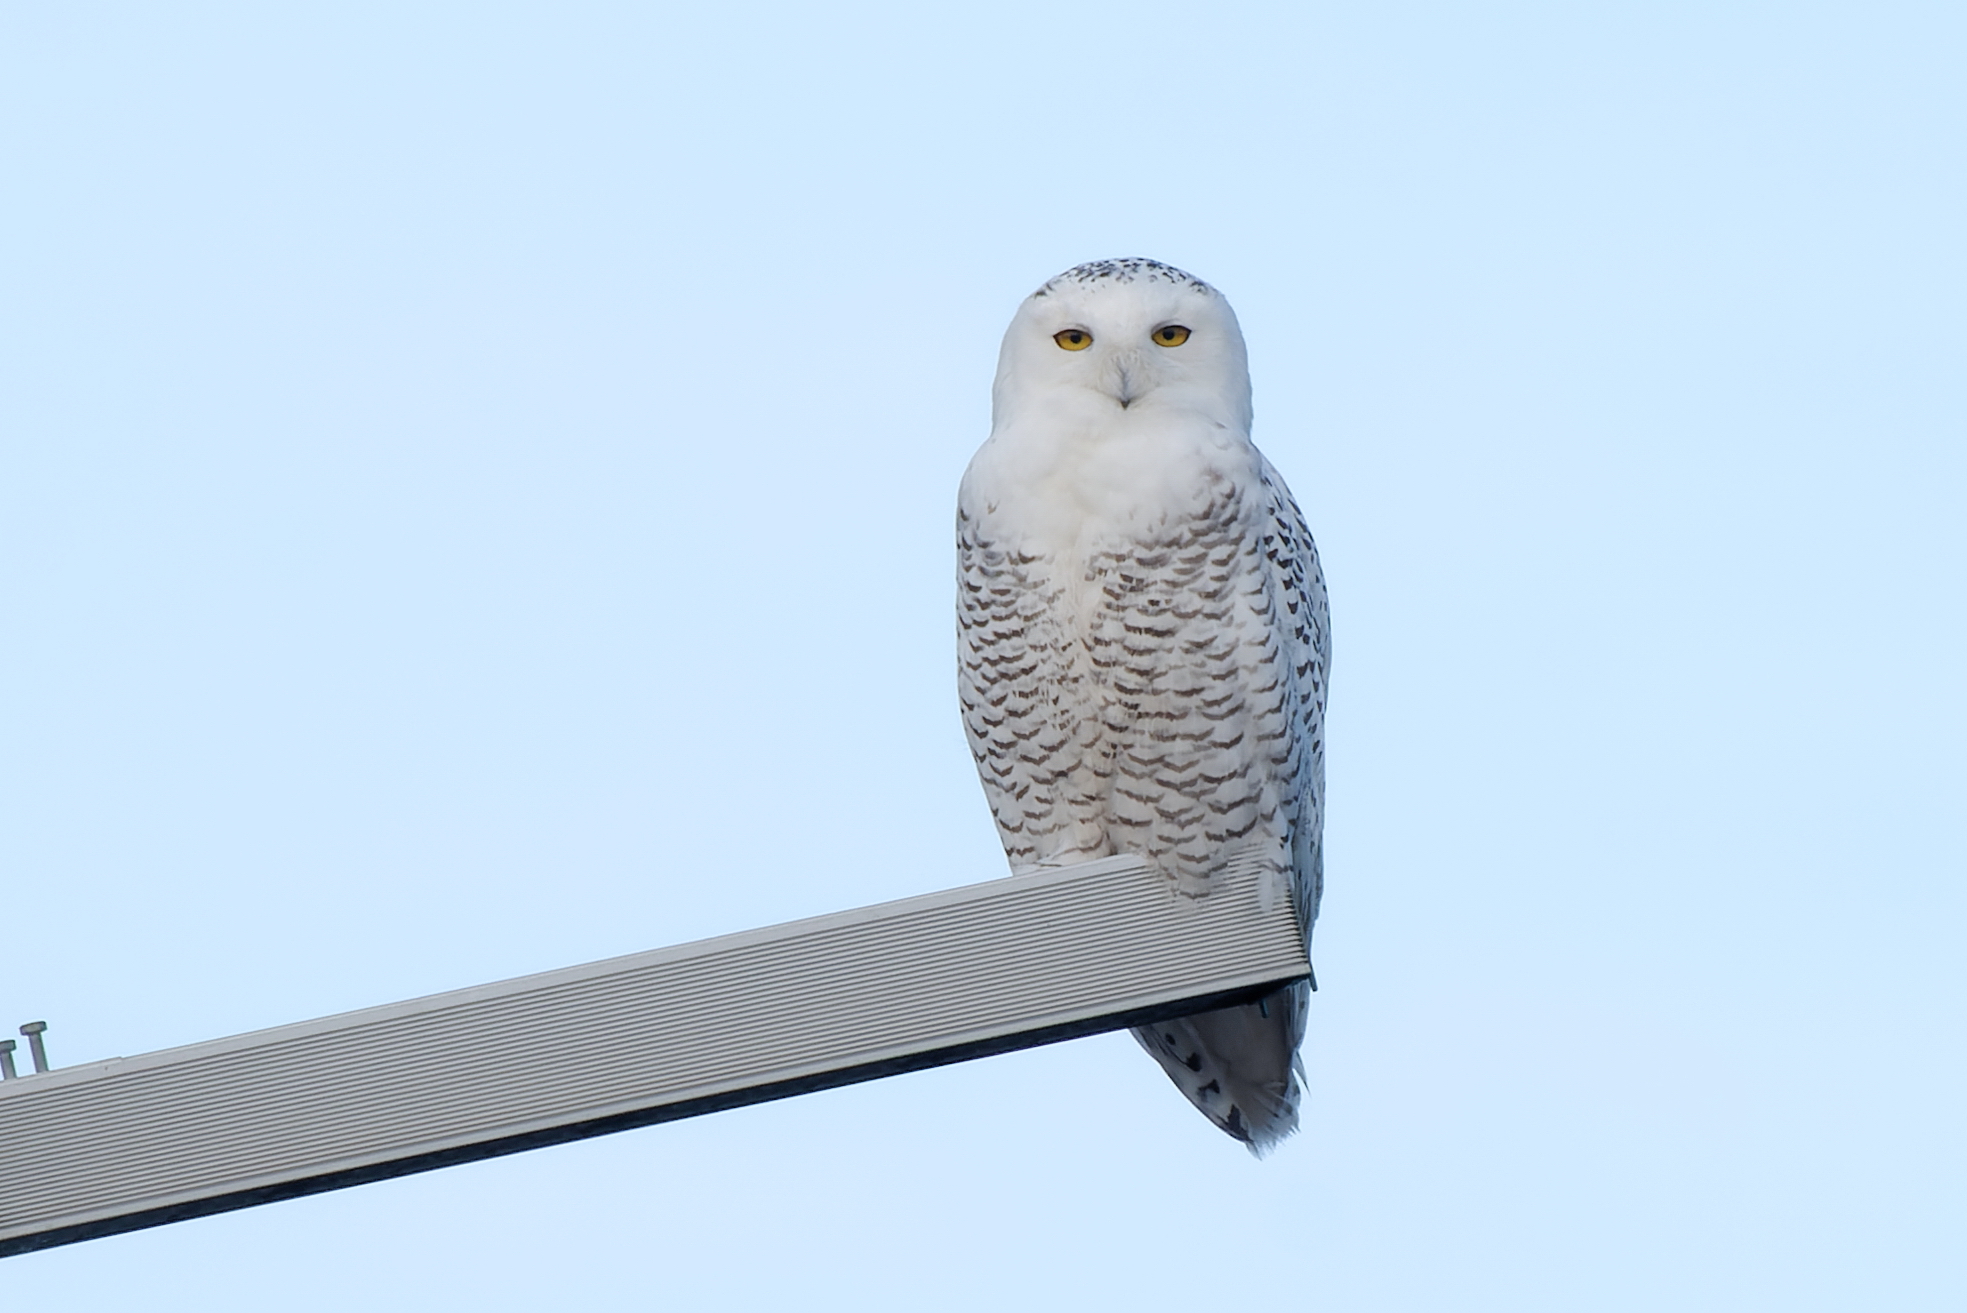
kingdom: Animalia
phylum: Chordata
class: Aves
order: Strigiformes
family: Strigidae
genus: Bubo
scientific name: Bubo scandiacus
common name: Snowy owl
